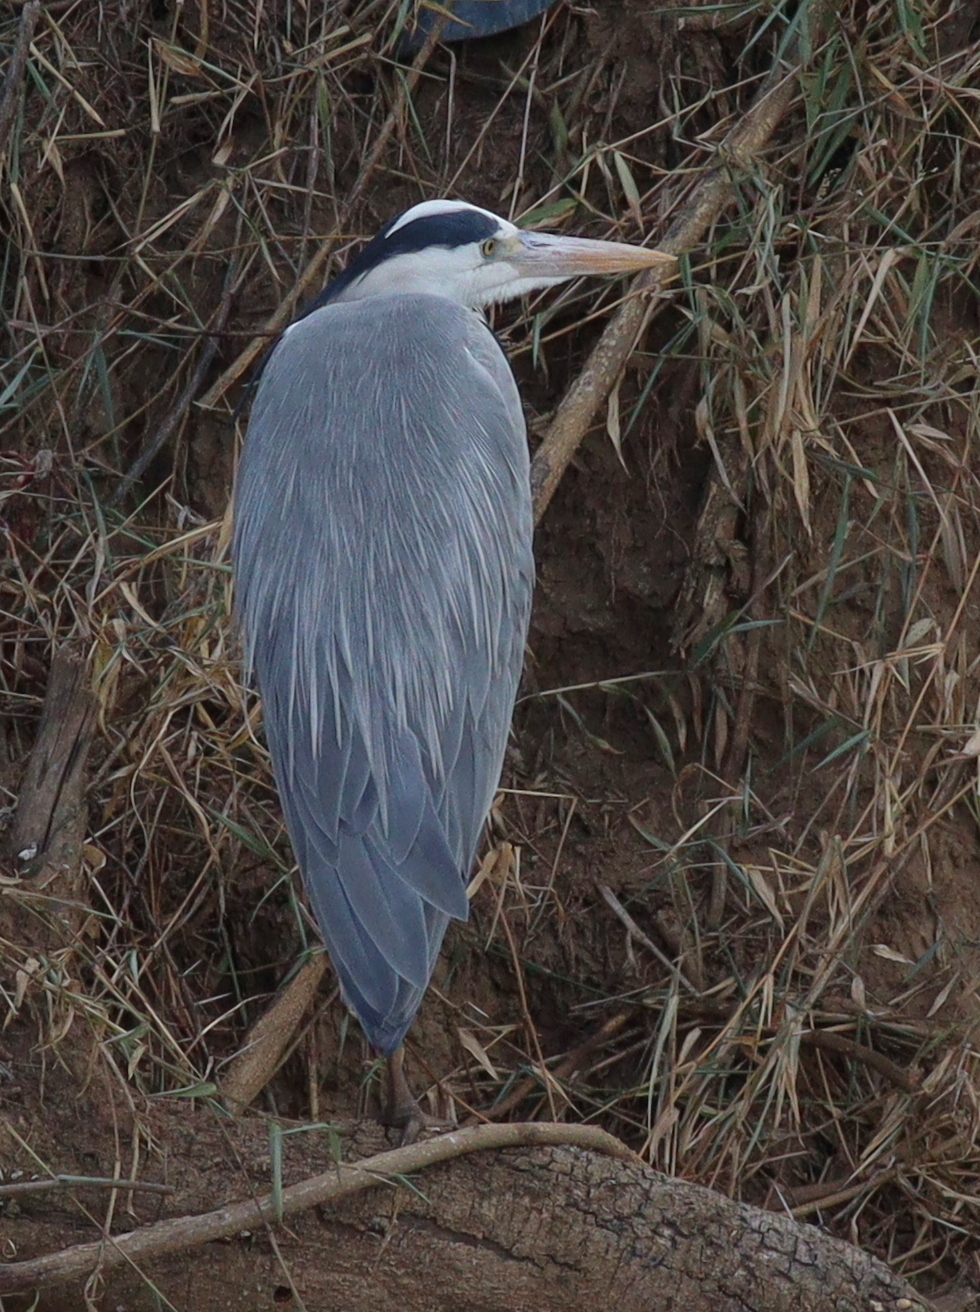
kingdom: Animalia
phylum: Chordata
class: Aves
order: Pelecaniformes
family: Ardeidae
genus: Ardea
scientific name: Ardea cinerea
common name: Grey heron
